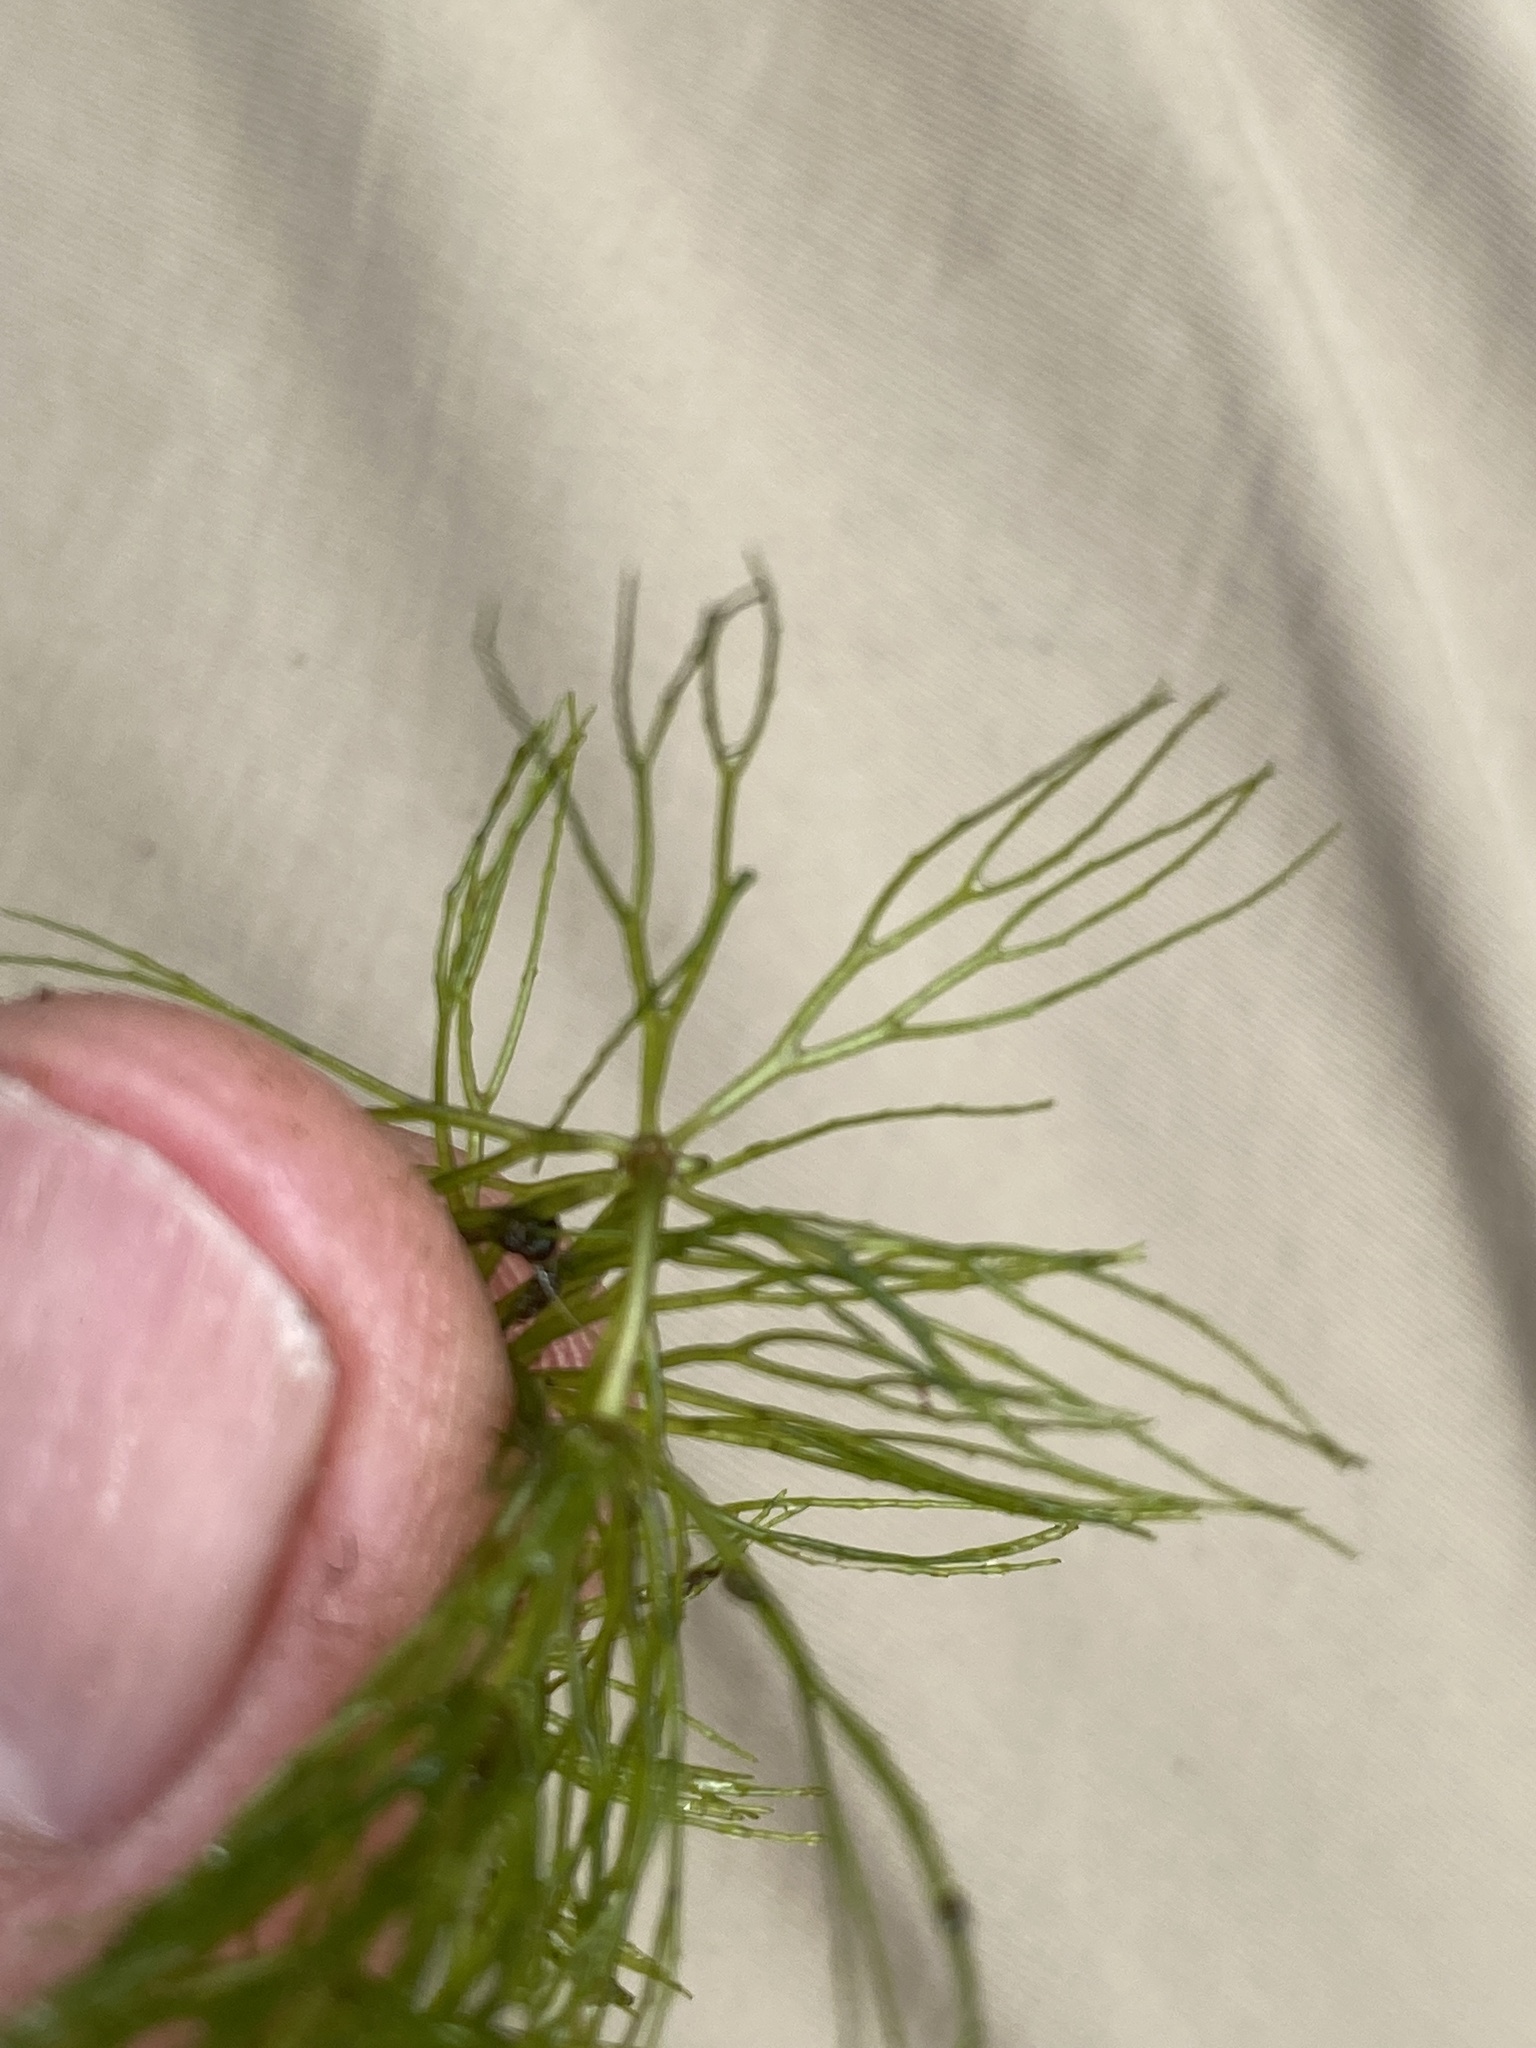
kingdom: Plantae
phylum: Tracheophyta
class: Magnoliopsida
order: Ceratophyllales
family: Ceratophyllaceae
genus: Ceratophyllum
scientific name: Ceratophyllum echinatum
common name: Prickly coontail
